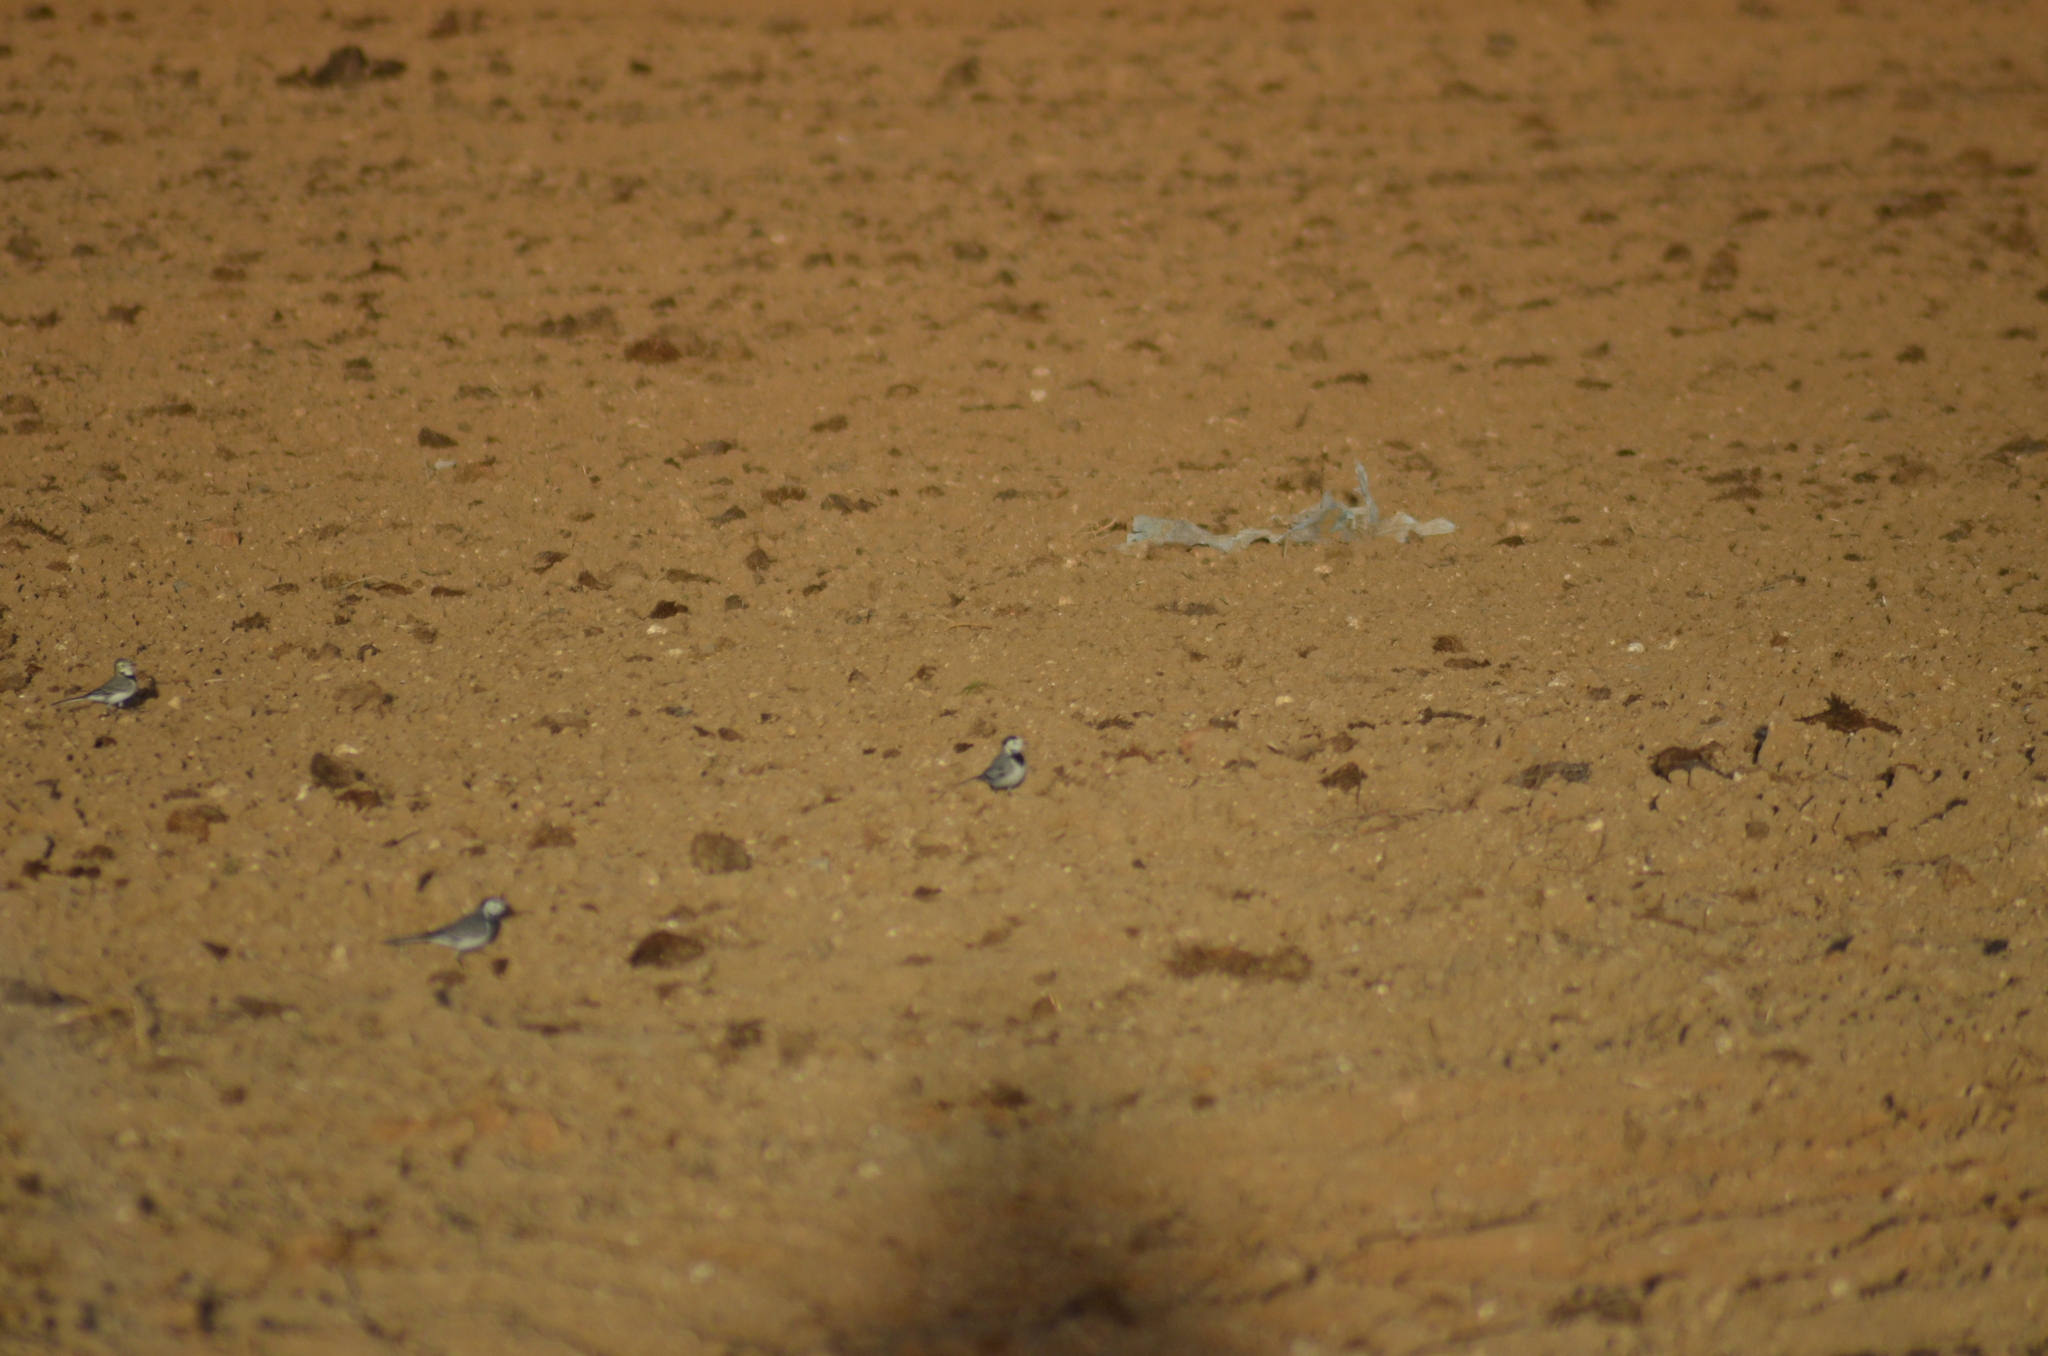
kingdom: Animalia
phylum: Chordata
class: Aves
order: Passeriformes
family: Motacillidae
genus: Motacilla
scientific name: Motacilla alba
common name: White wagtail
